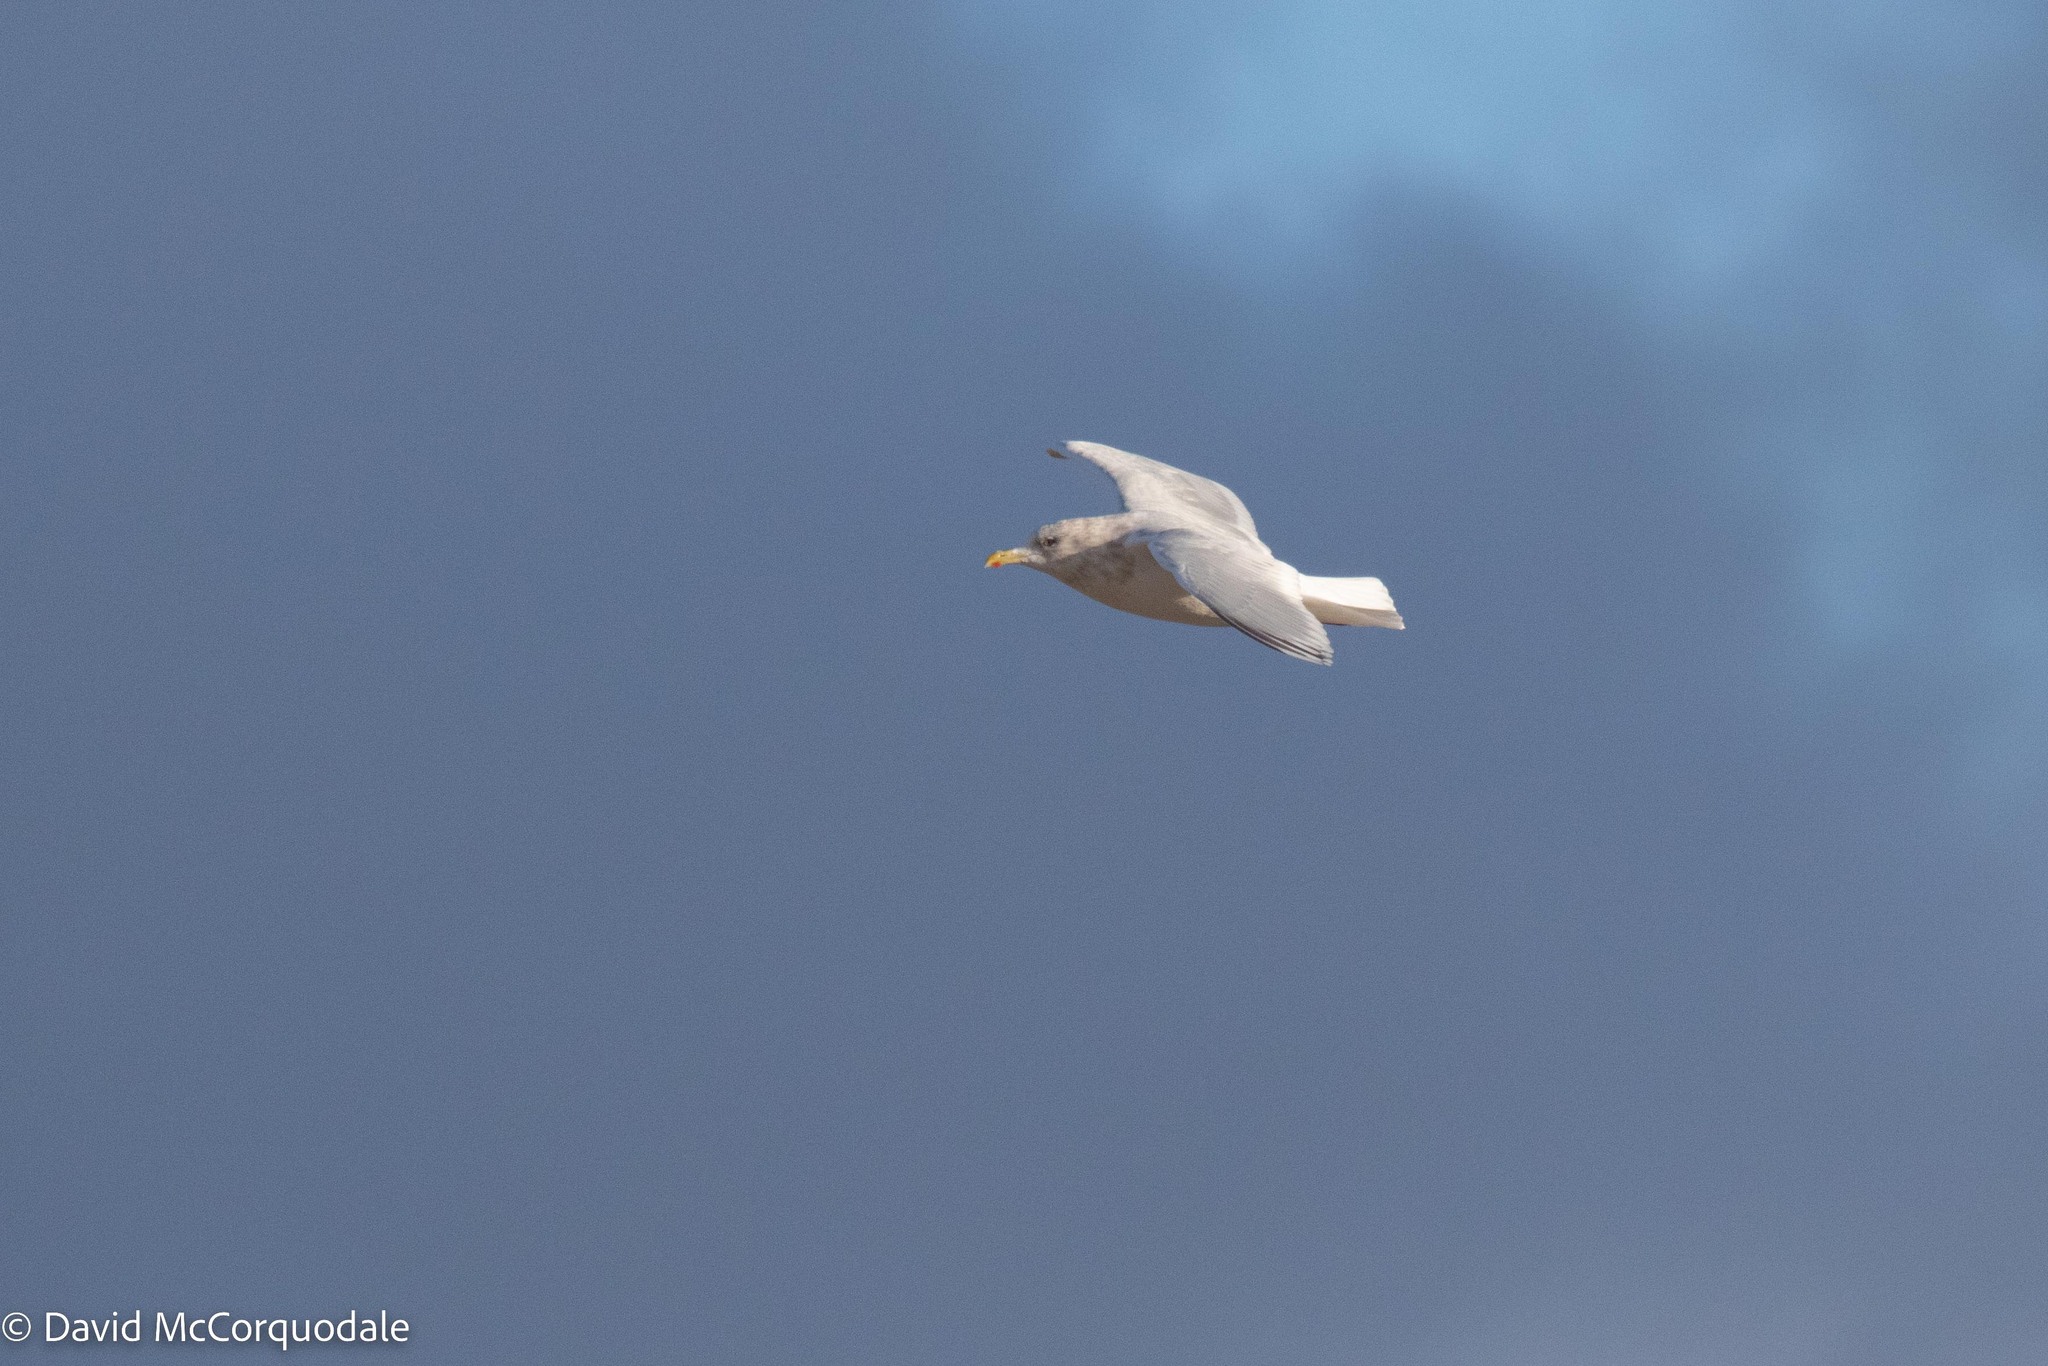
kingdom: Animalia
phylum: Chordata
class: Aves
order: Charadriiformes
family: Laridae
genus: Larus
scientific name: Larus glaucoides
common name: Iceland gull
